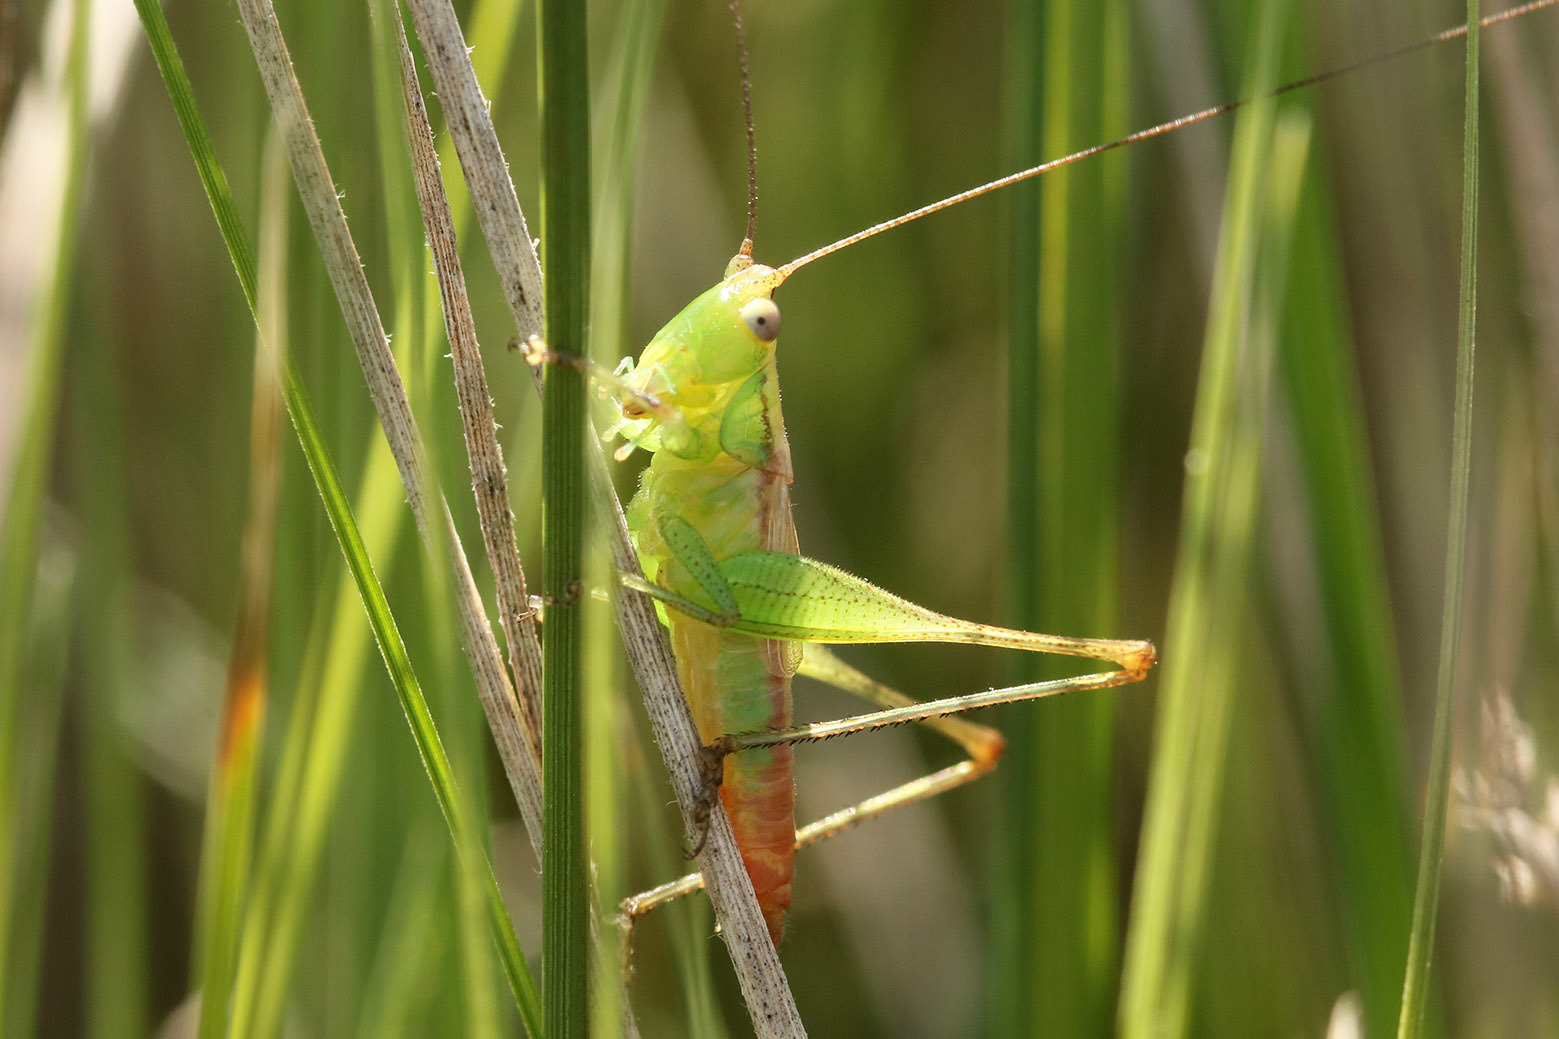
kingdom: Animalia
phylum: Arthropoda
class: Insecta
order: Orthoptera
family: Tettigoniidae
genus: Conocephalus
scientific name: Conocephalus doryphorus
